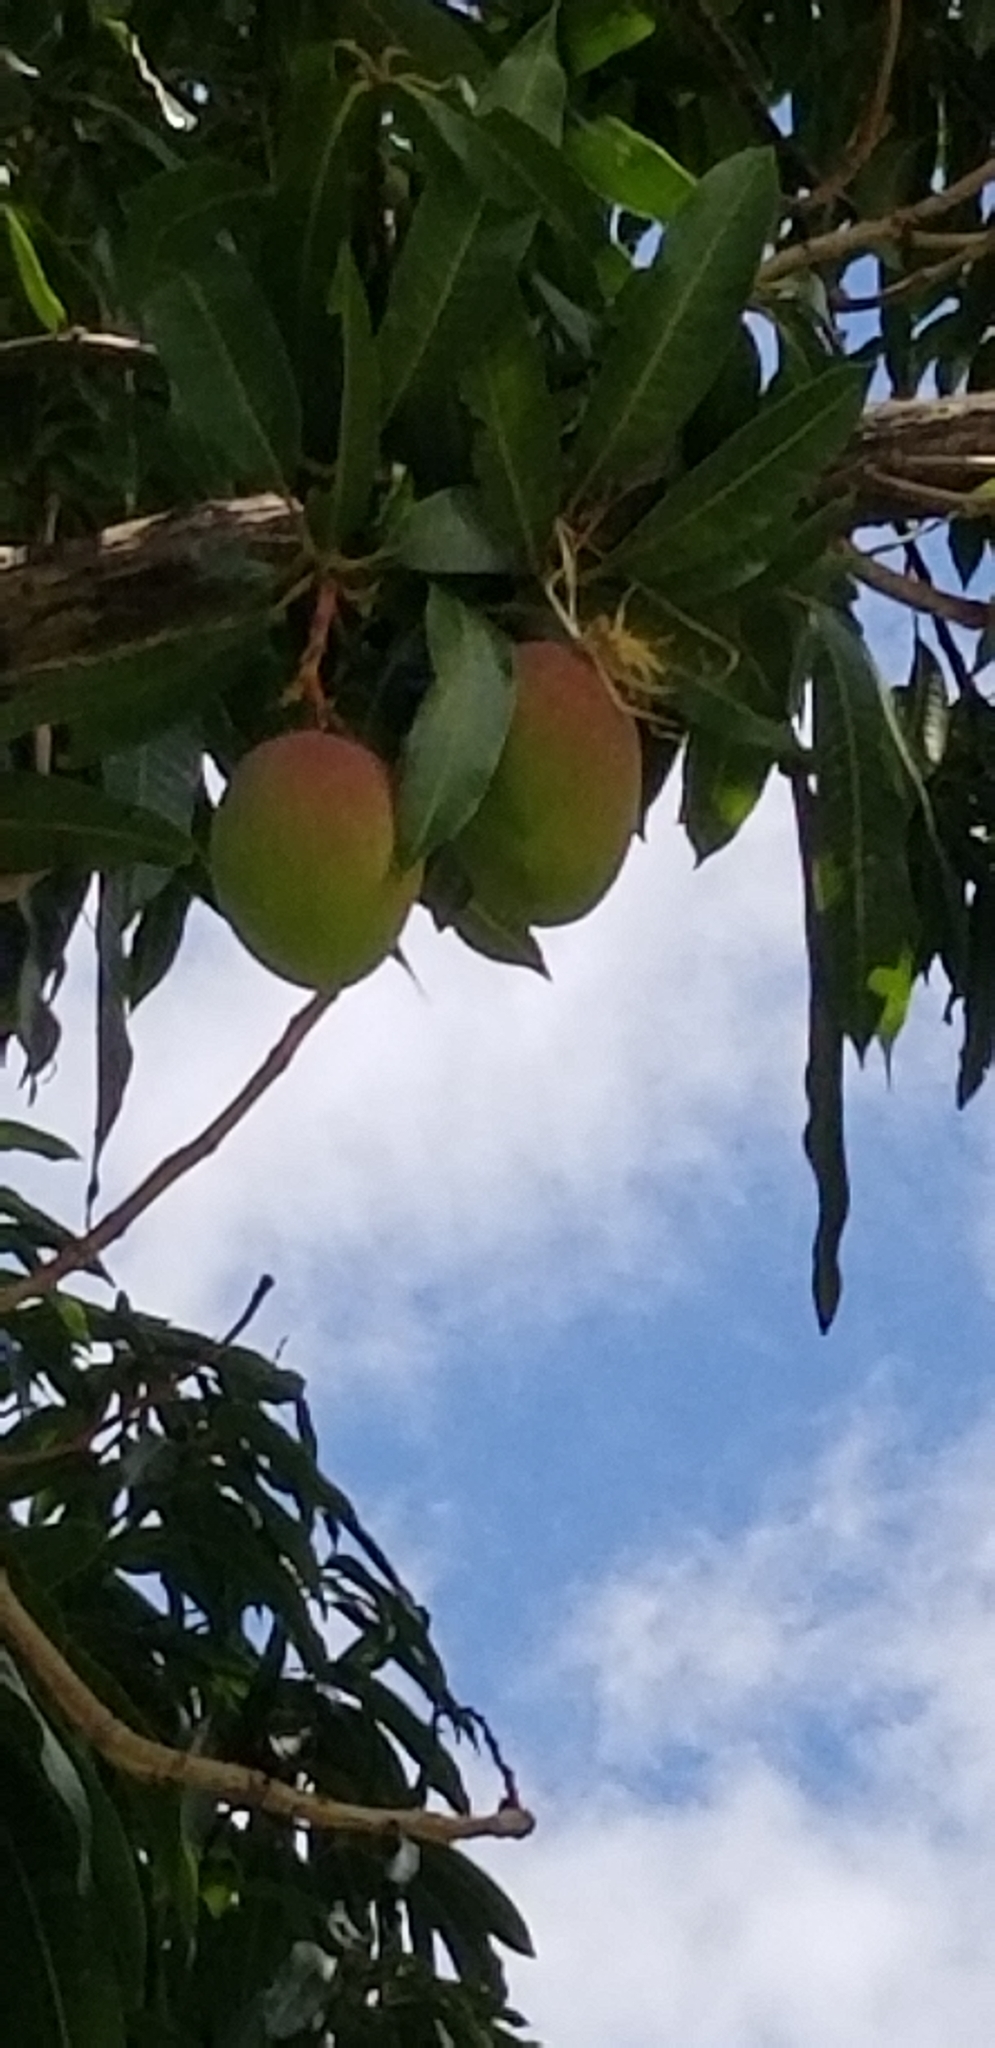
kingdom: Plantae
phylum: Tracheophyta
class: Magnoliopsida
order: Sapindales
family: Anacardiaceae
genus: Mangifera
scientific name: Mangifera indica
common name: Mango
